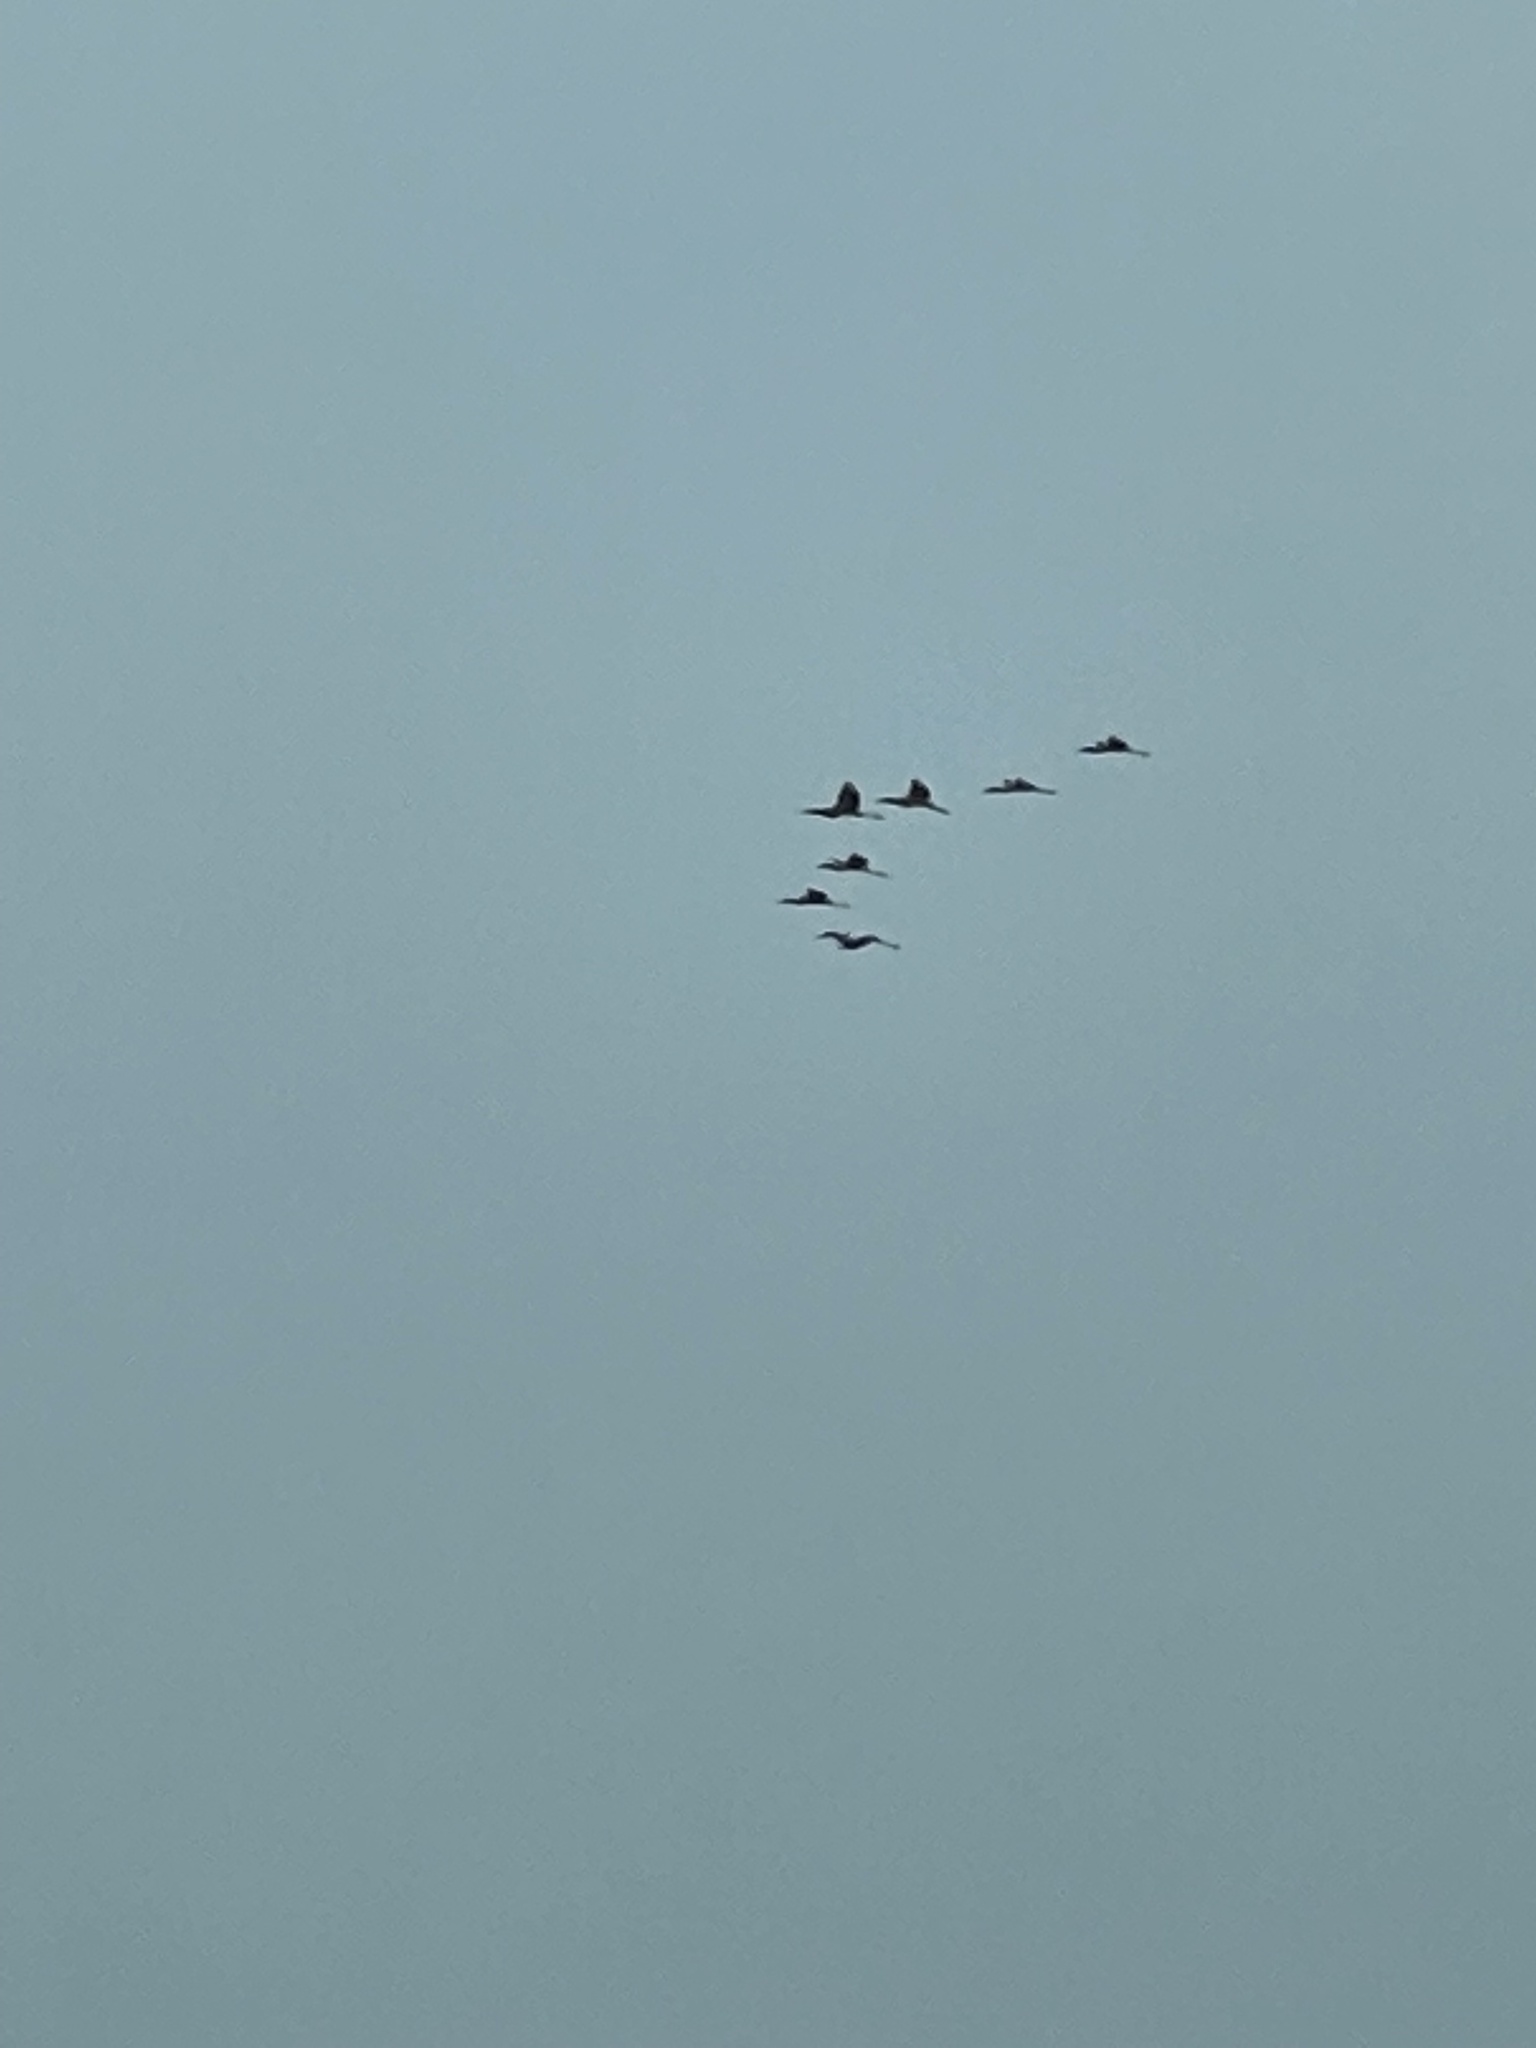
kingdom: Animalia
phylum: Chordata
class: Aves
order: Ciconiiformes
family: Ciconiidae
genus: Mycteria
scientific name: Mycteria americana
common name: Wood stork
